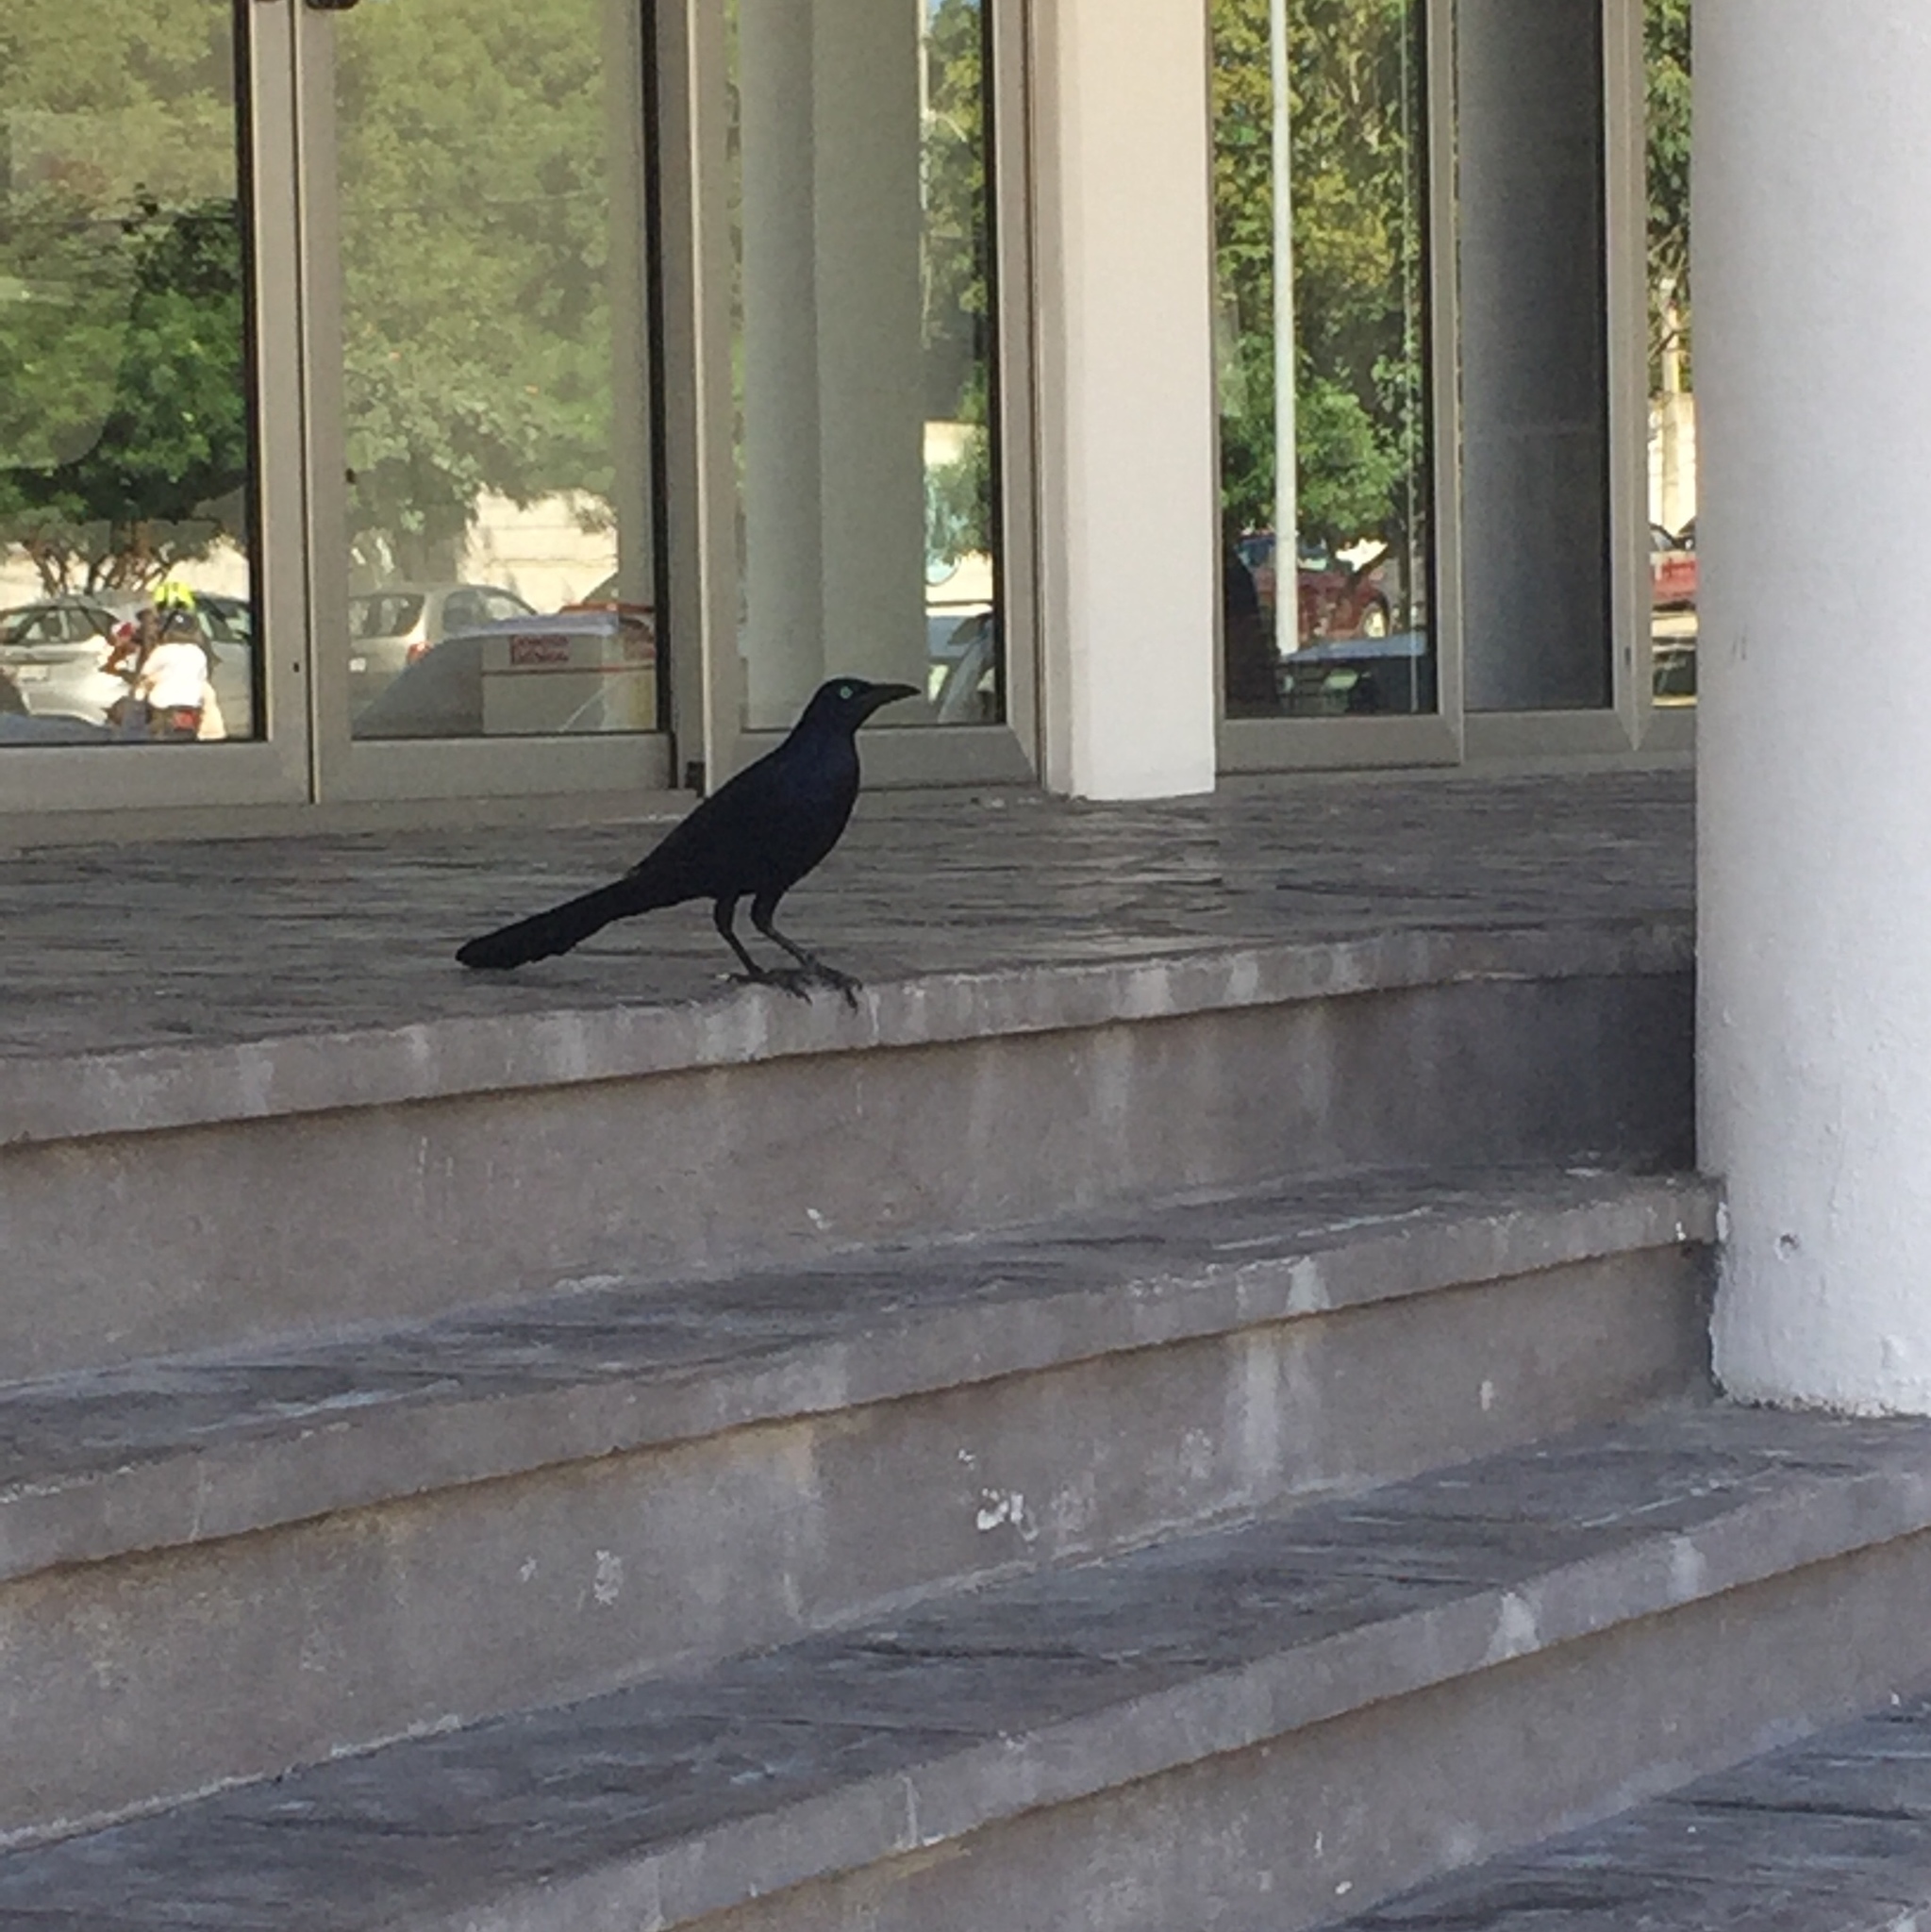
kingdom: Animalia
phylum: Chordata
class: Aves
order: Passeriformes
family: Icteridae
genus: Quiscalus
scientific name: Quiscalus mexicanus
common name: Great-tailed grackle
